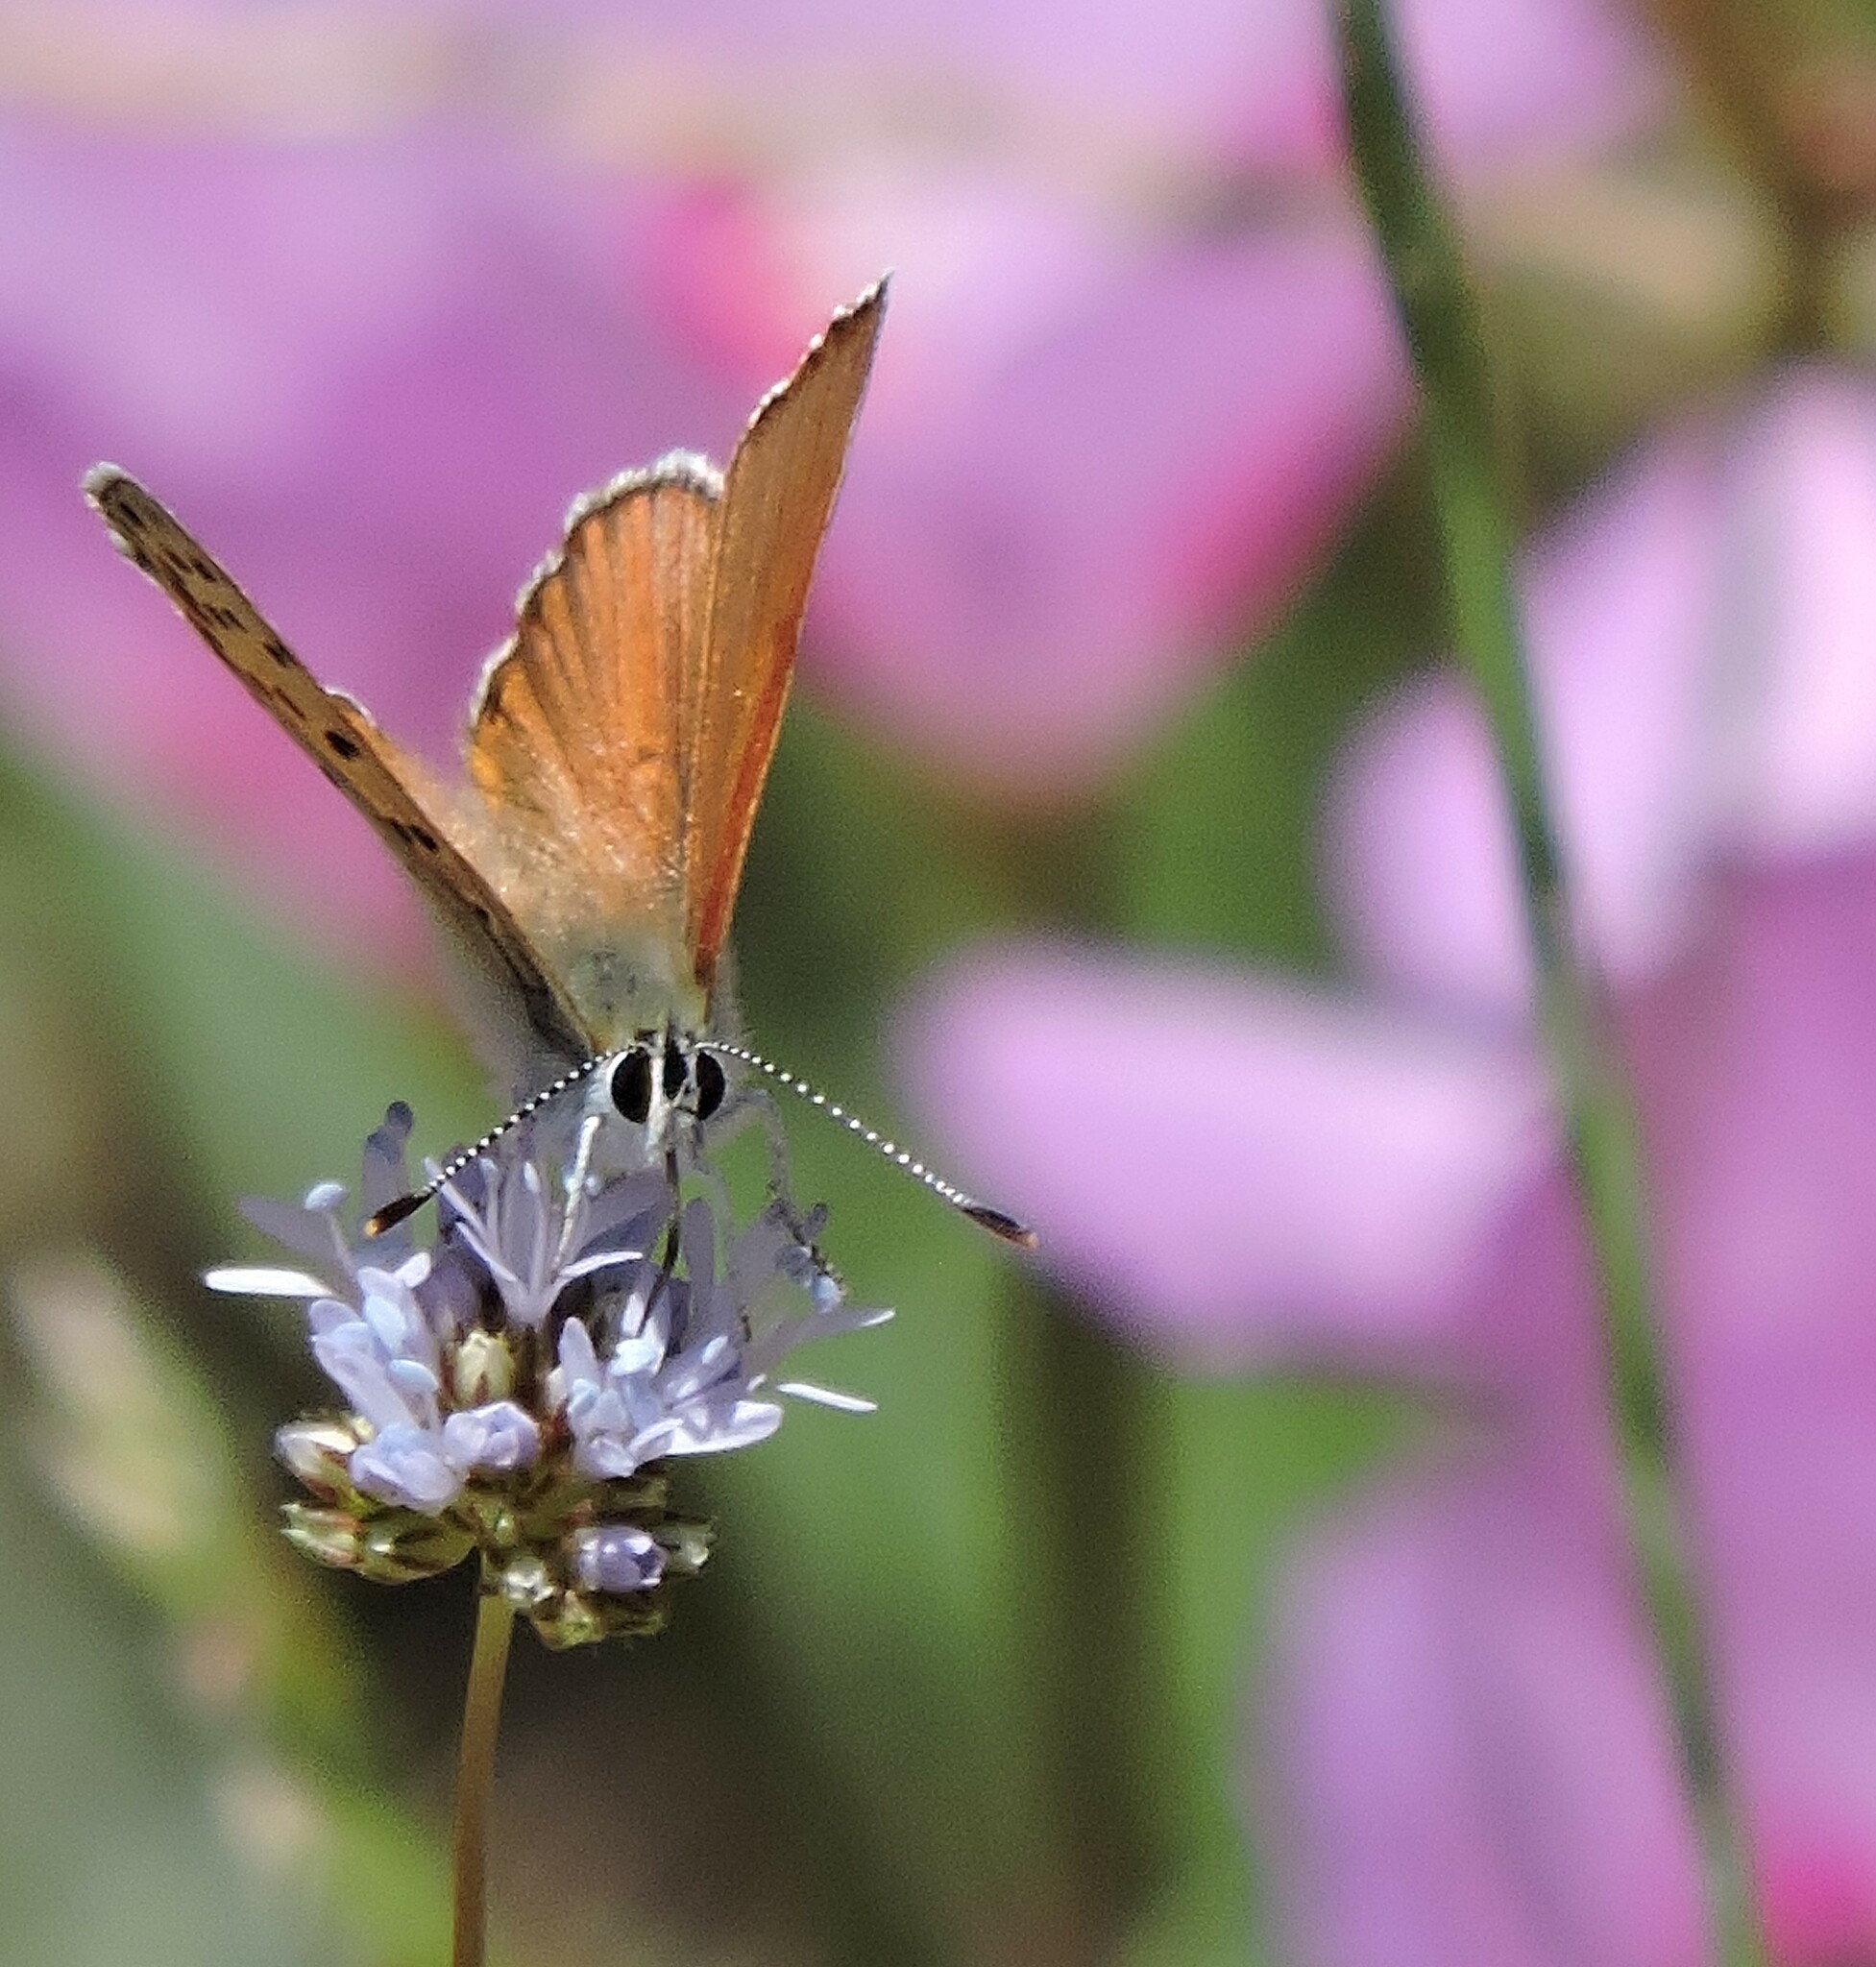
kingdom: Animalia
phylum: Arthropoda
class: Insecta
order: Lepidoptera
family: Lycaenidae
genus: Tharsalea
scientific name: Tharsalea gorgon
